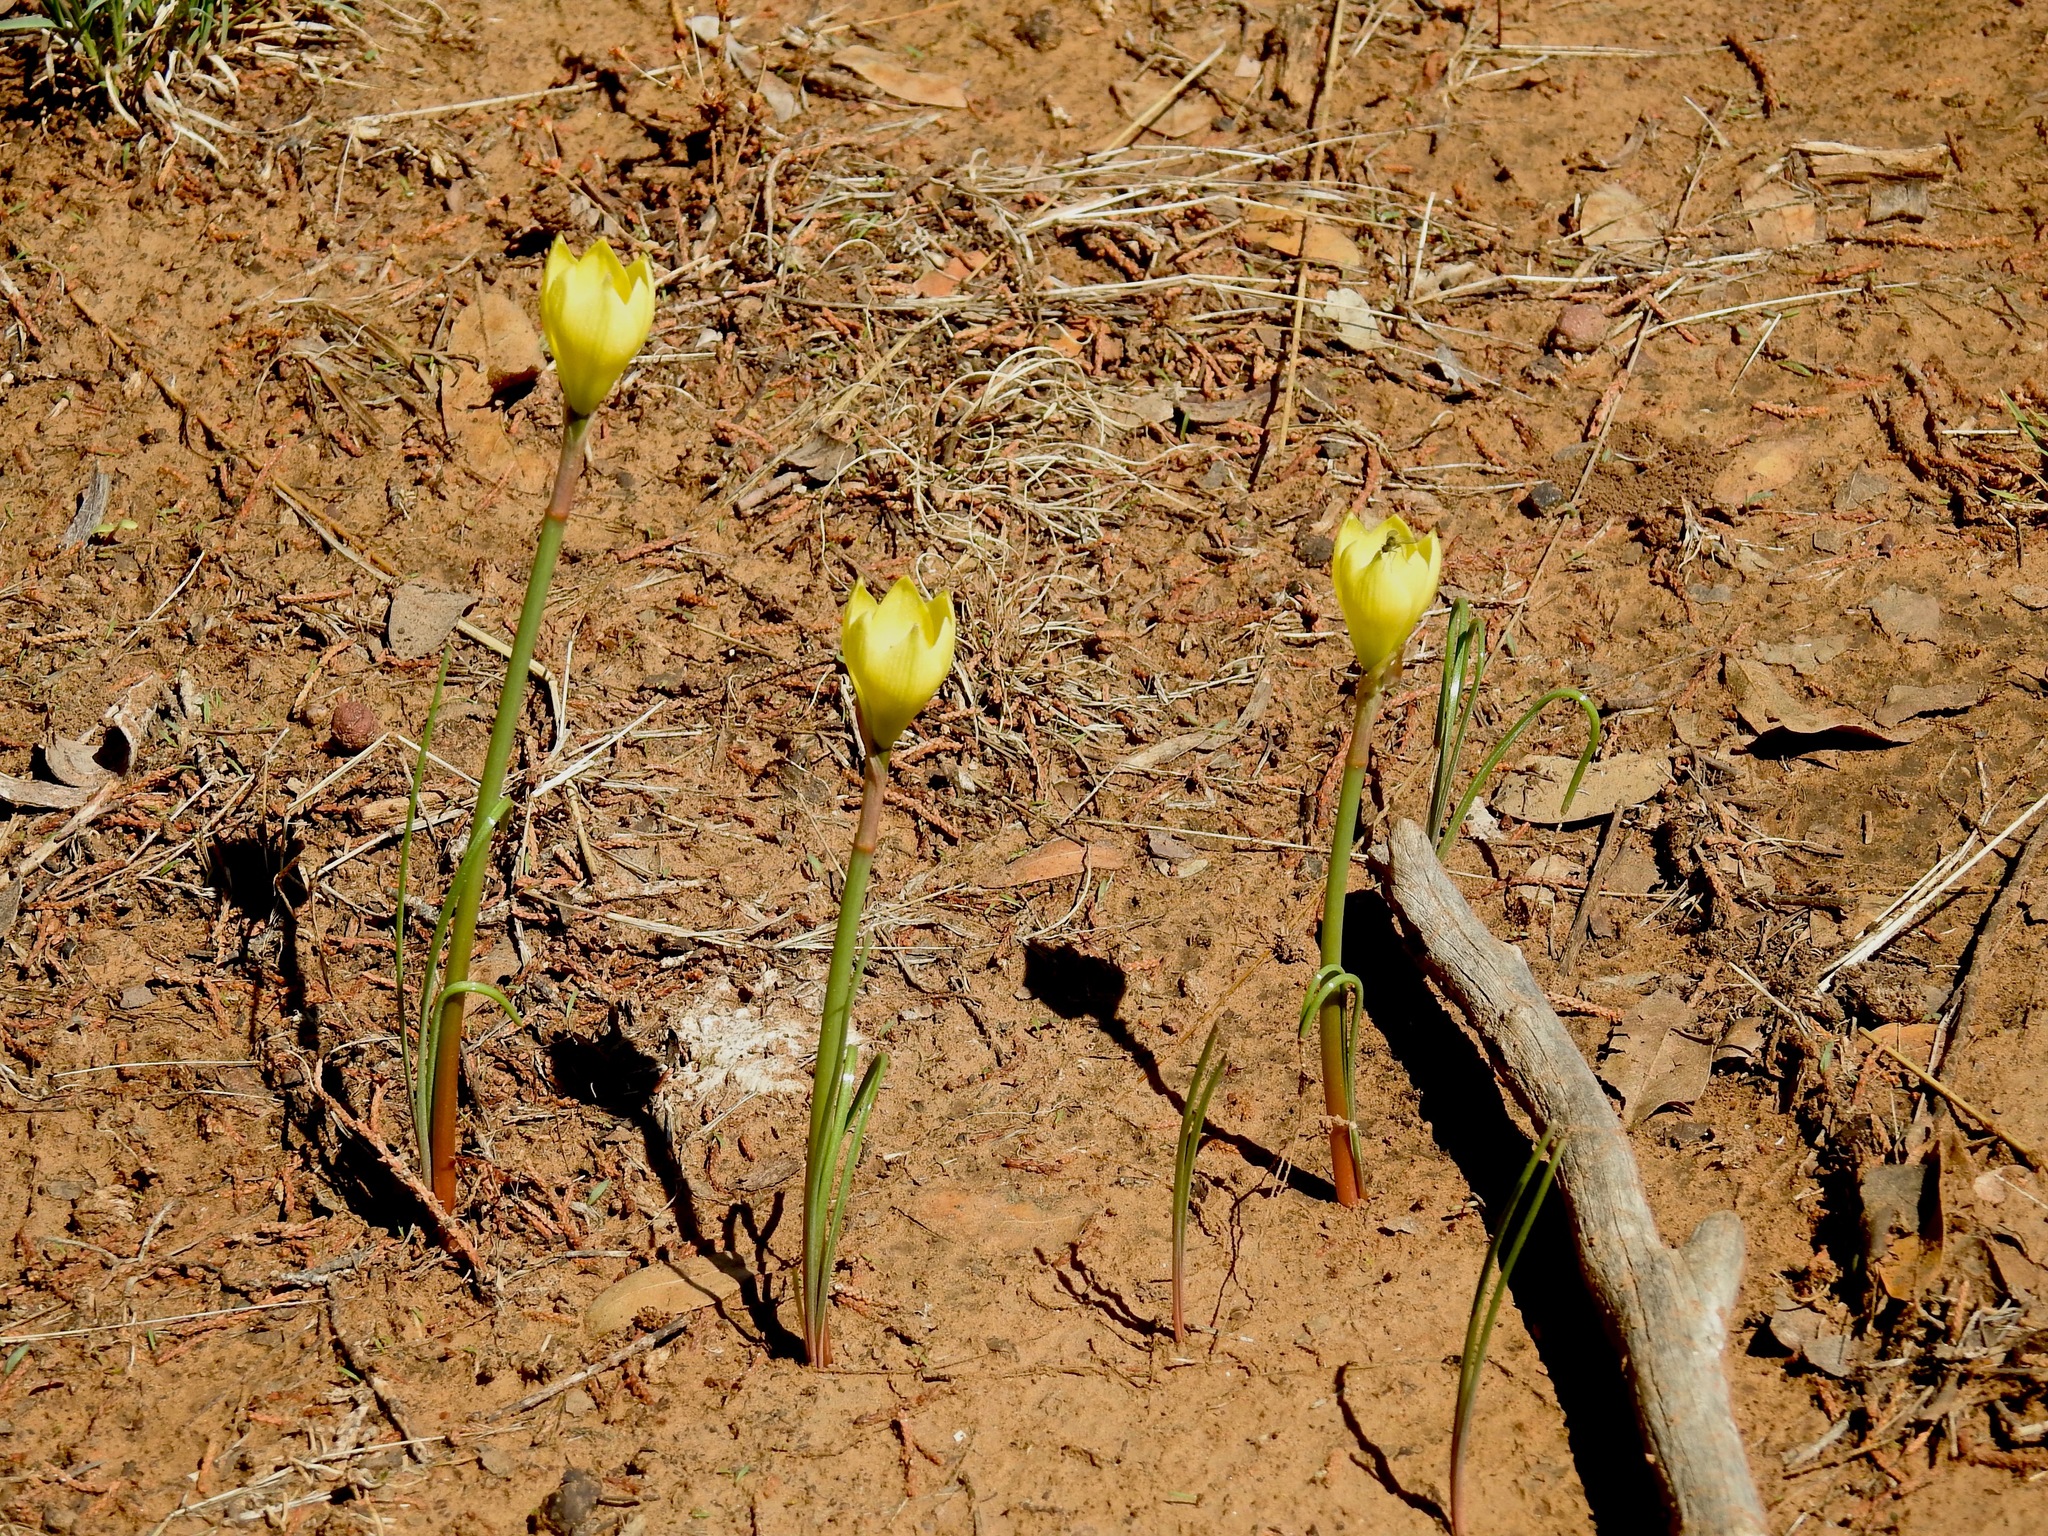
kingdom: Plantae
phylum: Tracheophyta
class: Liliopsida
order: Asparagales
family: Amaryllidaceae
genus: Zephyranthes
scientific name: Zephyranthes longifolia
